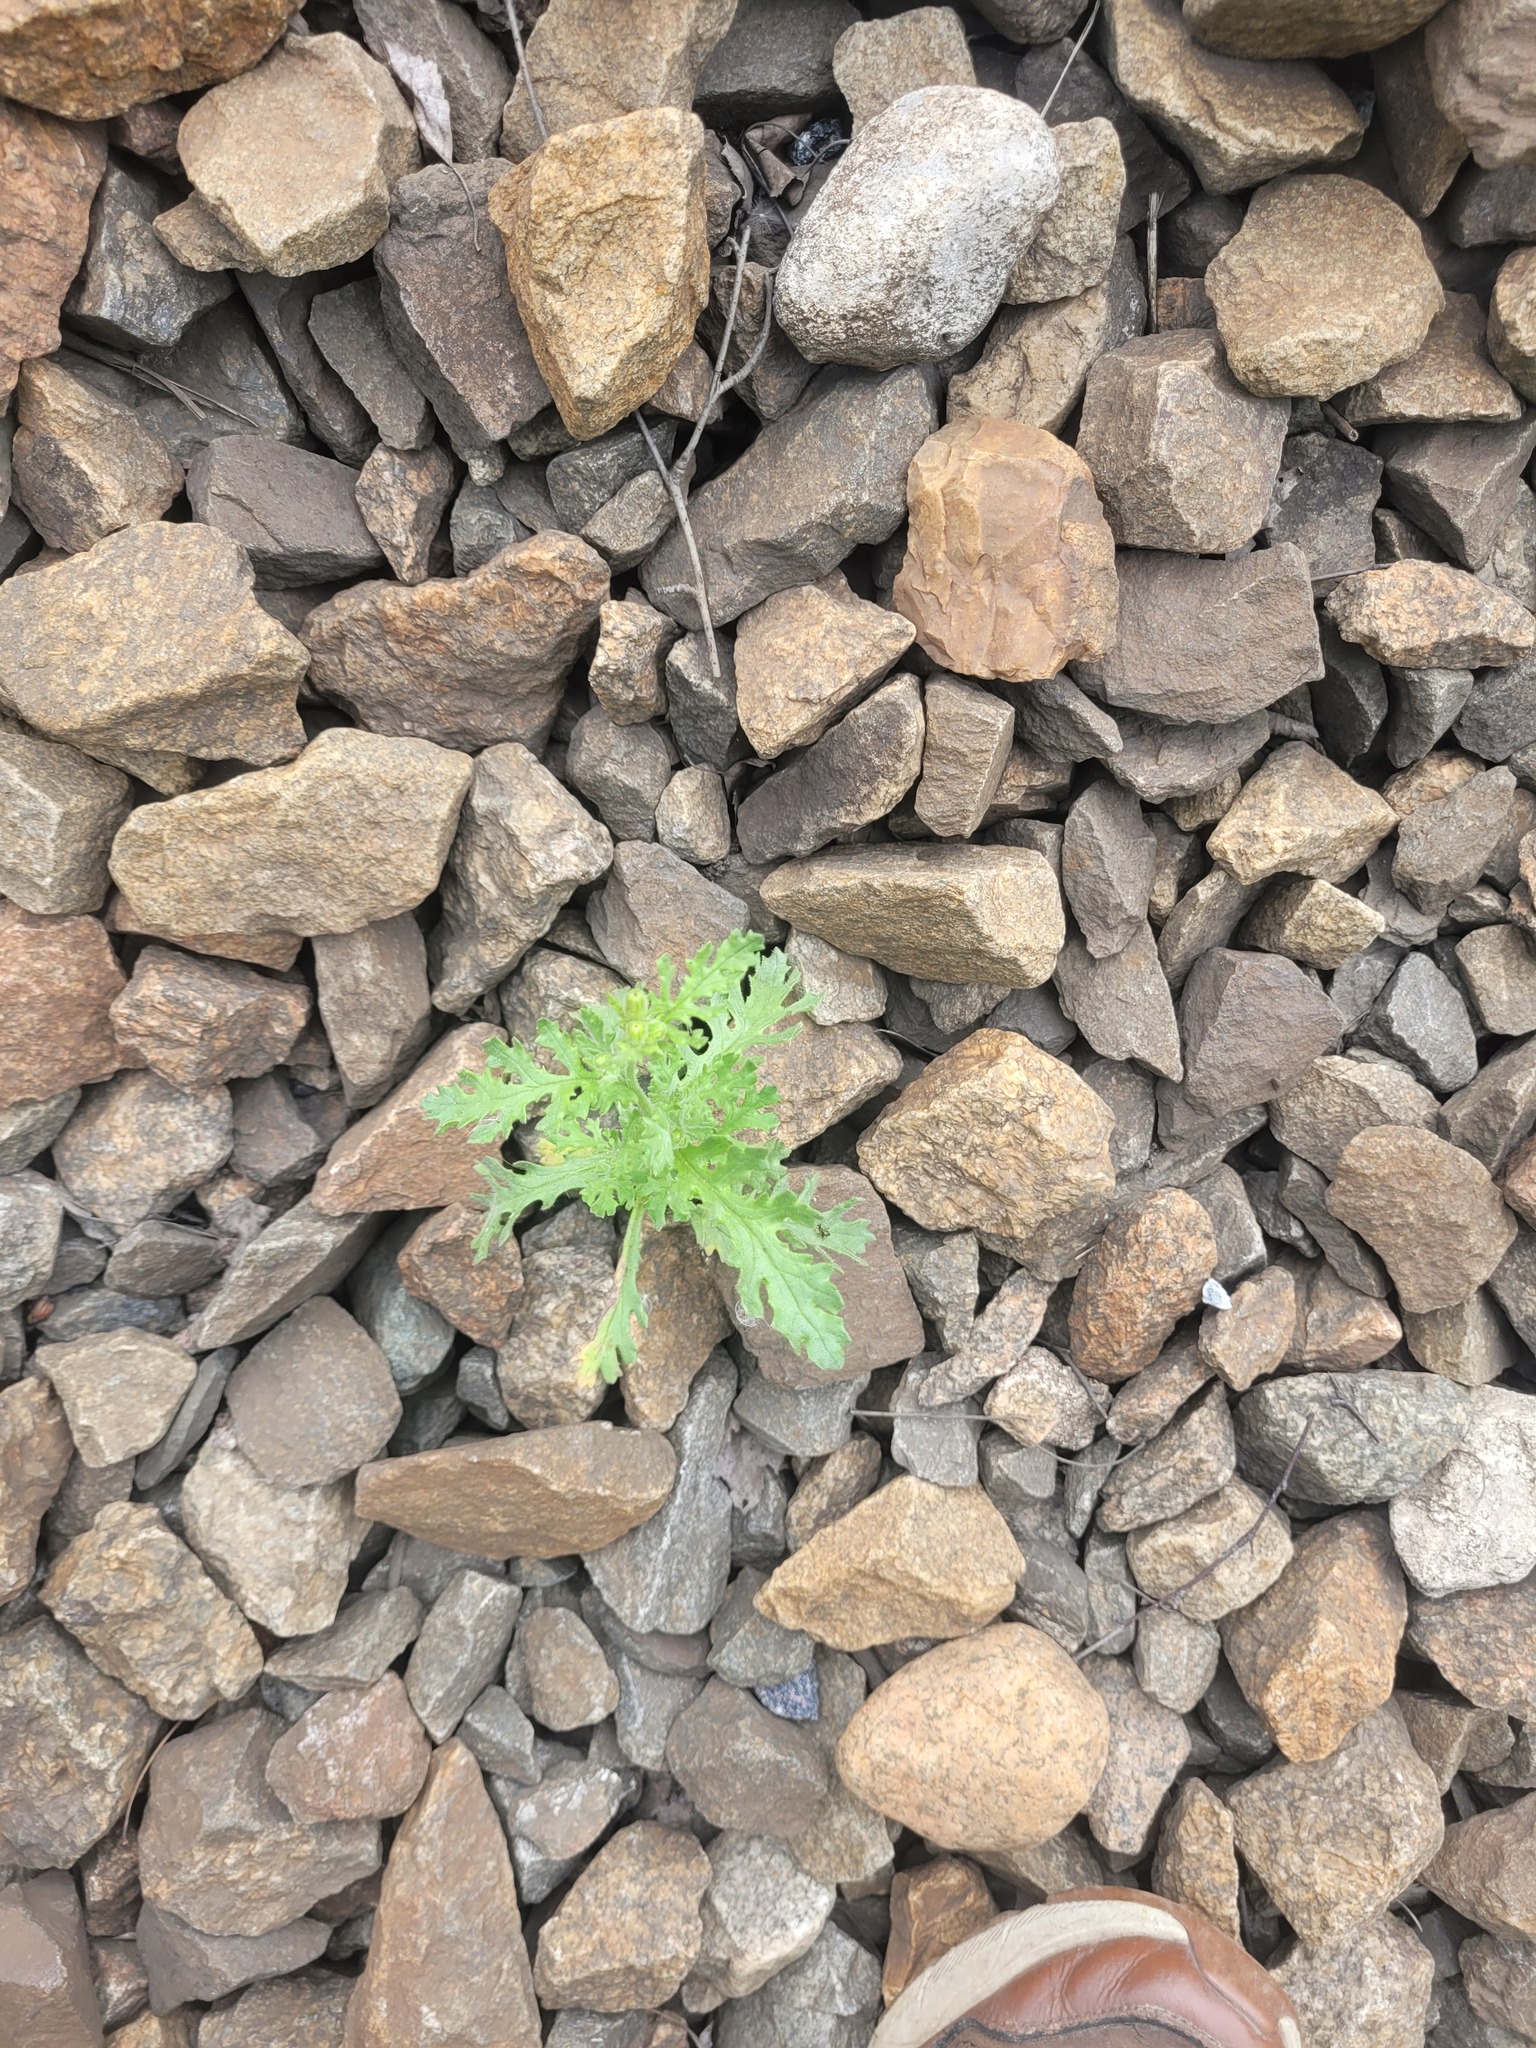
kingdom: Plantae
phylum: Tracheophyta
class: Magnoliopsida
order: Asterales
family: Asteraceae
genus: Senecio
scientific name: Senecio viscosus
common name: Sticky groundsel
